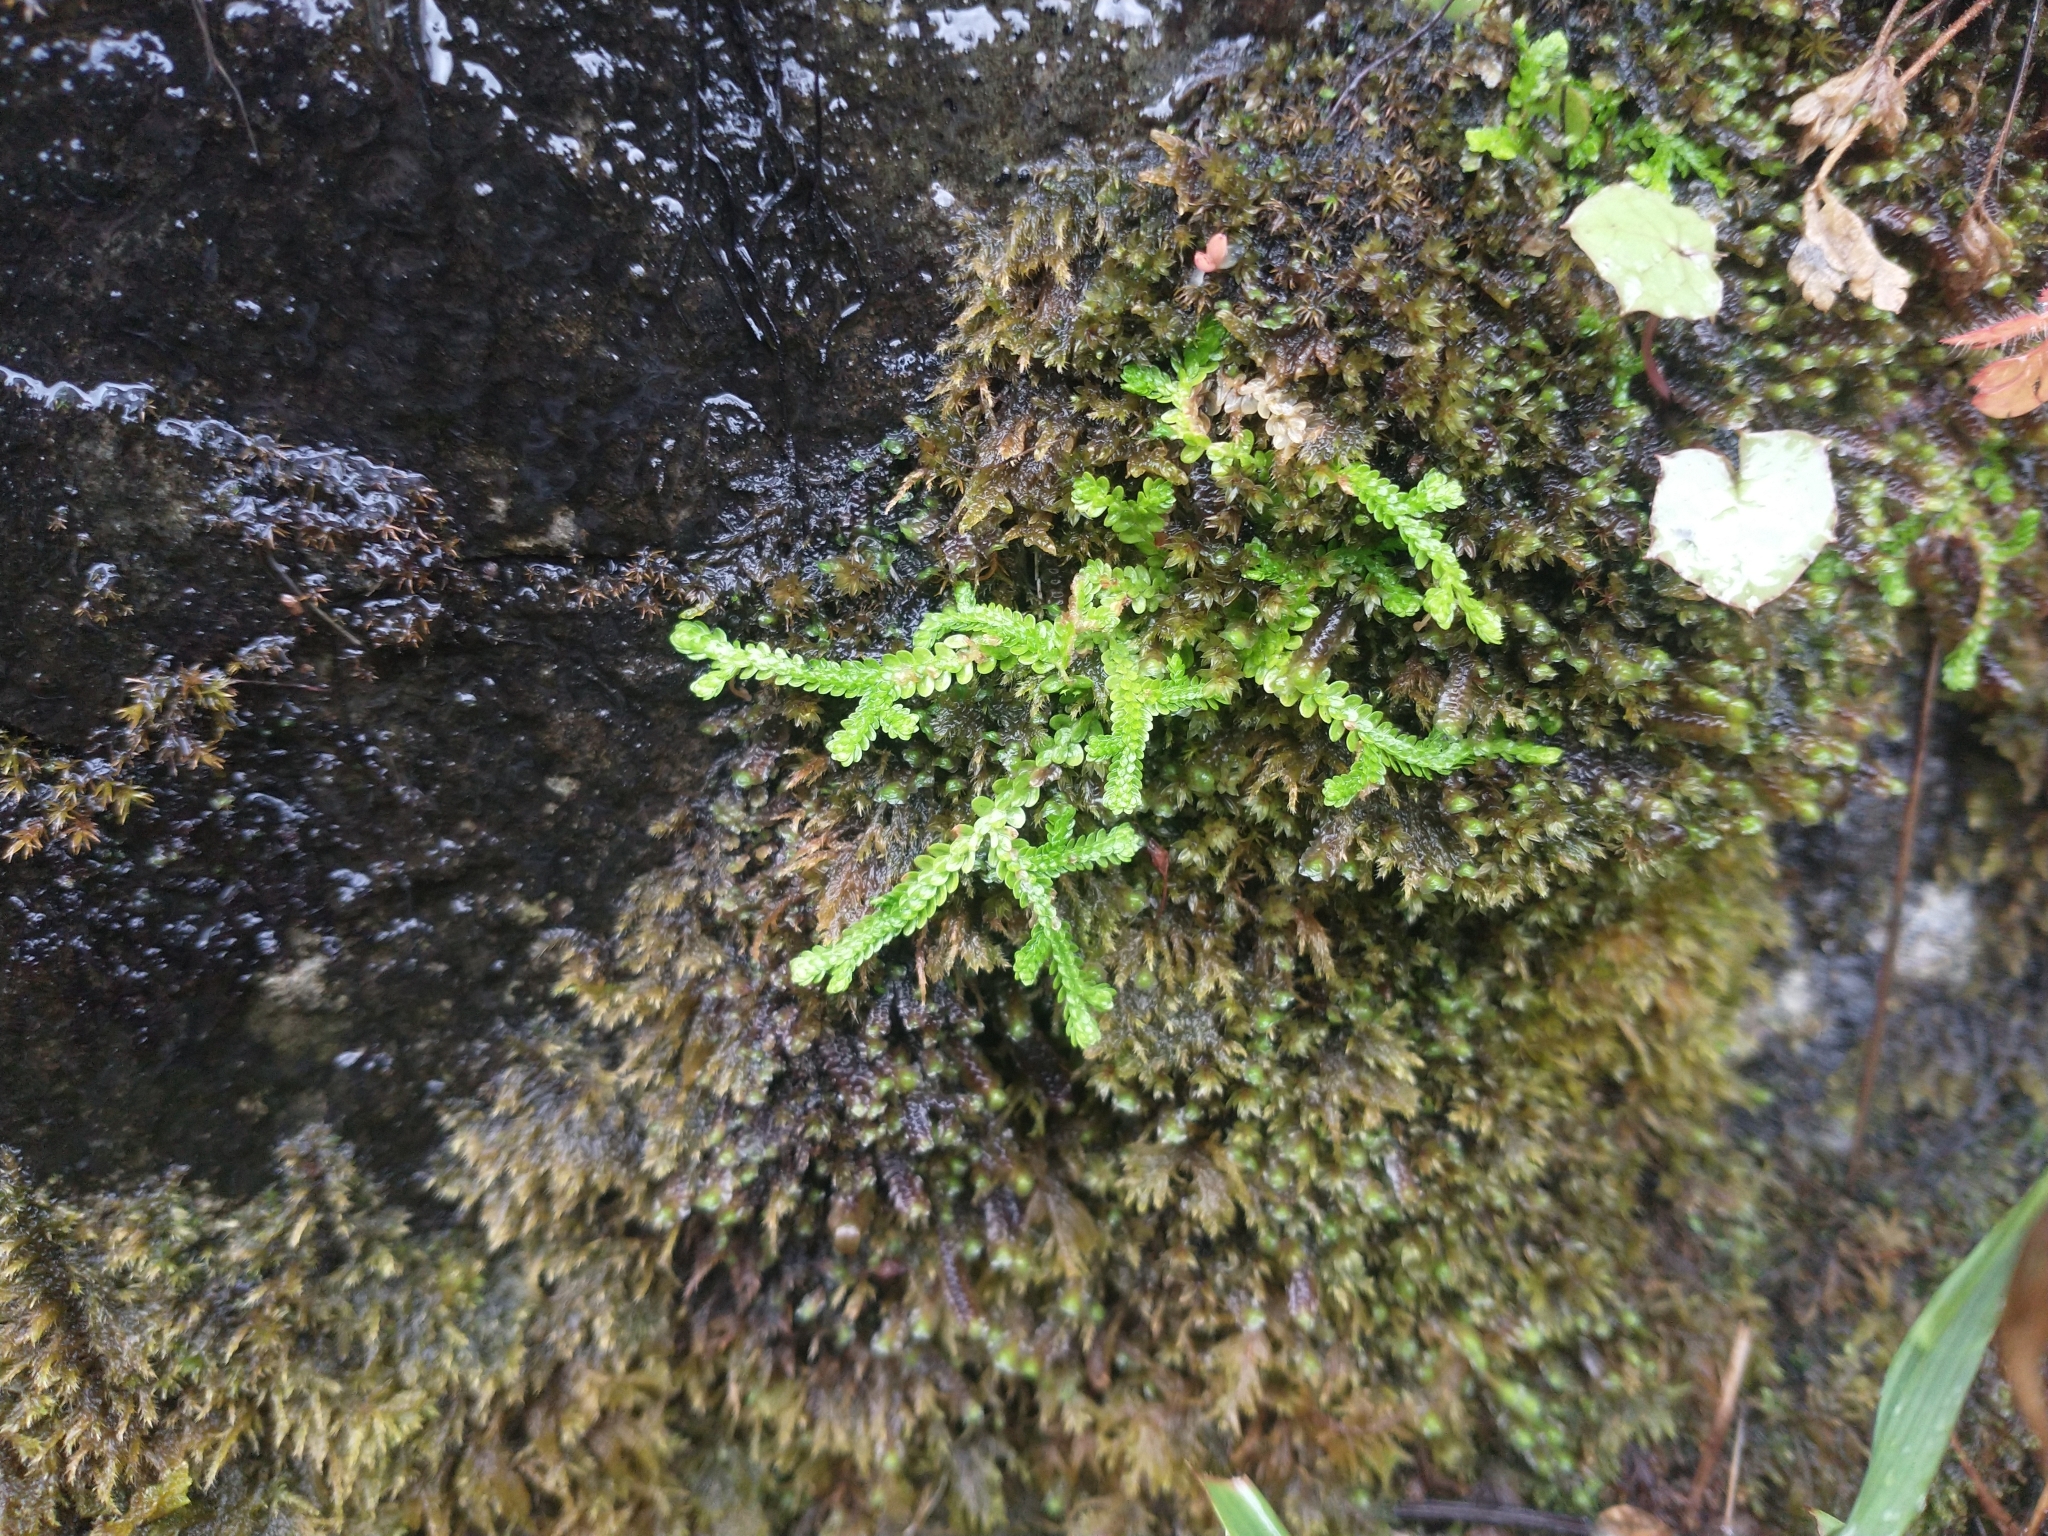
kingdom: Plantae
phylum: Tracheophyta
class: Lycopodiopsida
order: Selaginellales
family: Selaginellaceae
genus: Selaginella
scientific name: Selaginella douglasii
